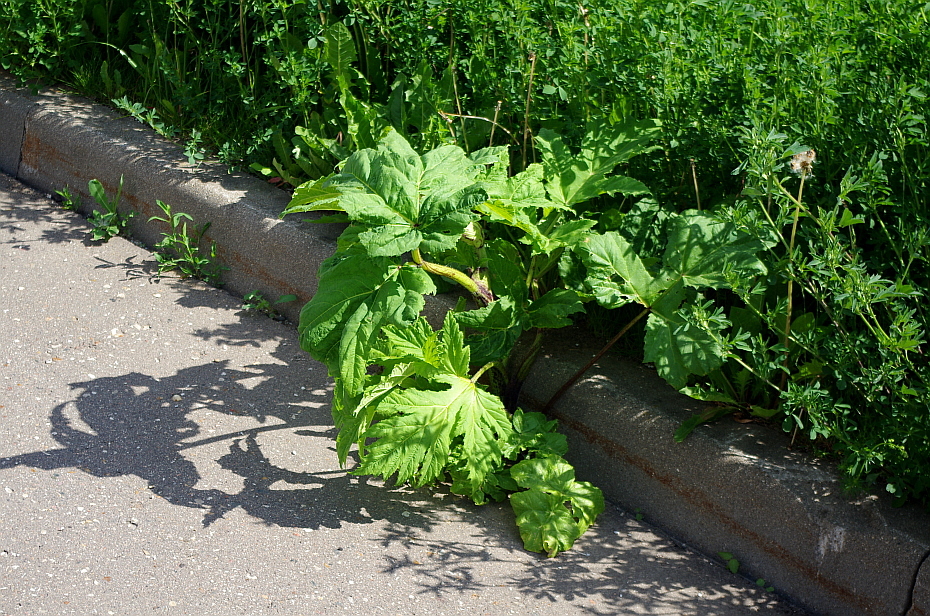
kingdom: Plantae
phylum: Tracheophyta
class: Magnoliopsida
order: Apiales
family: Apiaceae
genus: Heracleum
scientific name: Heracleum sosnowskyi
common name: Sosnowsky's hogweed
